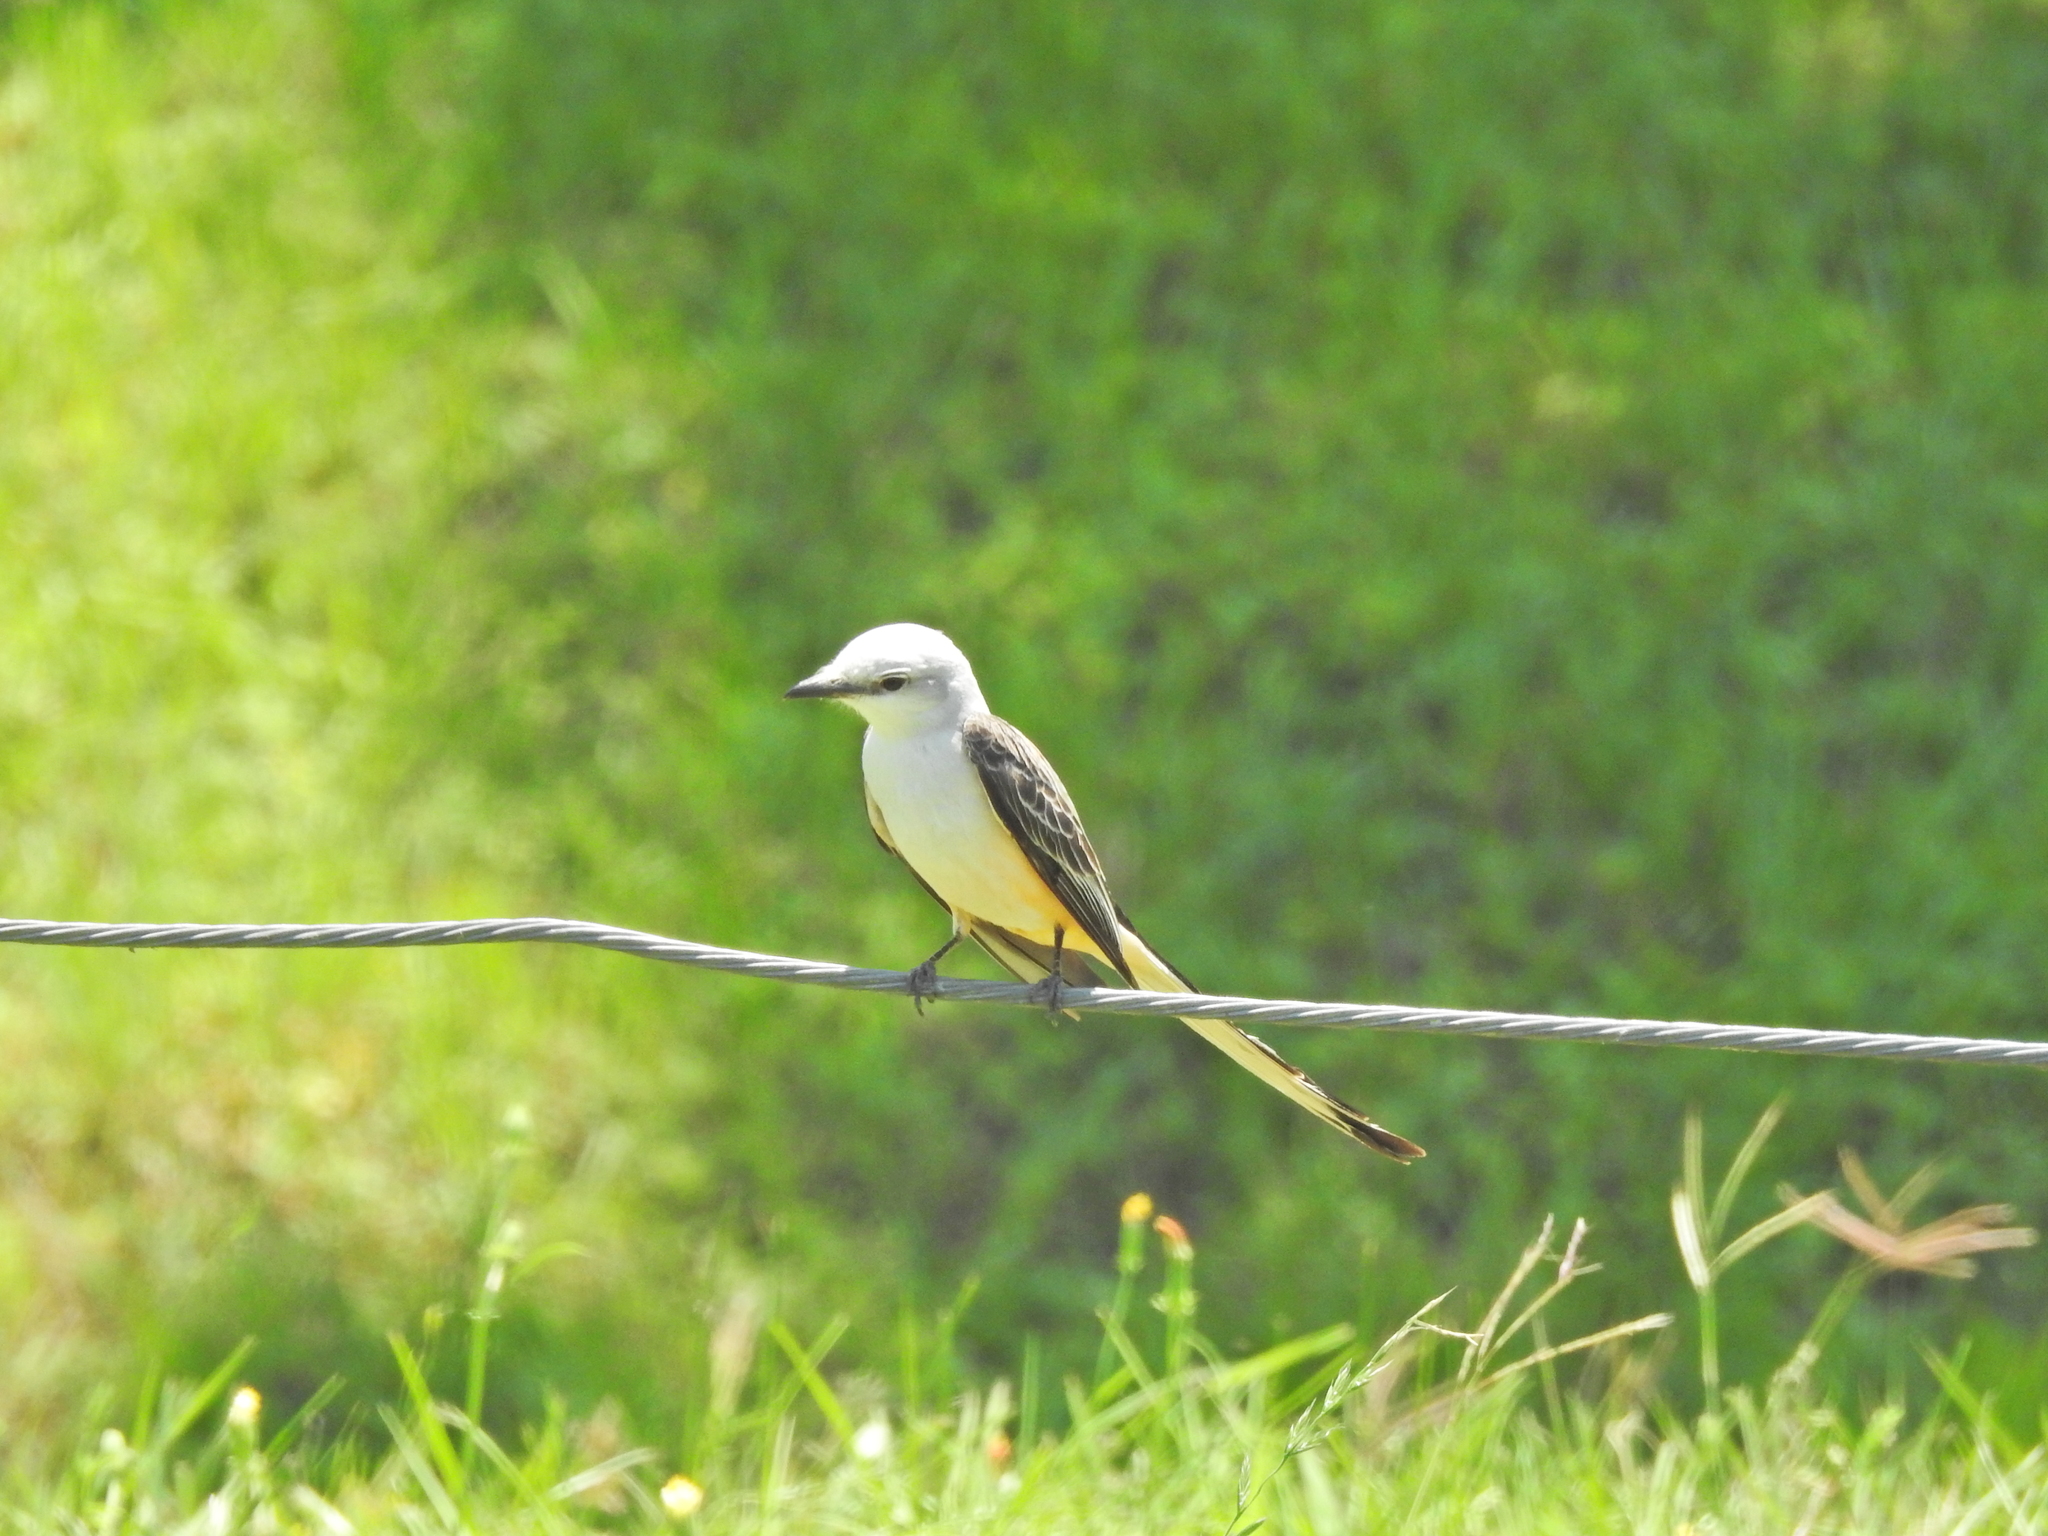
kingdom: Animalia
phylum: Chordata
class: Aves
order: Passeriformes
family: Tyrannidae
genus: Tyrannus
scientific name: Tyrannus forficatus
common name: Scissor-tailed flycatcher
